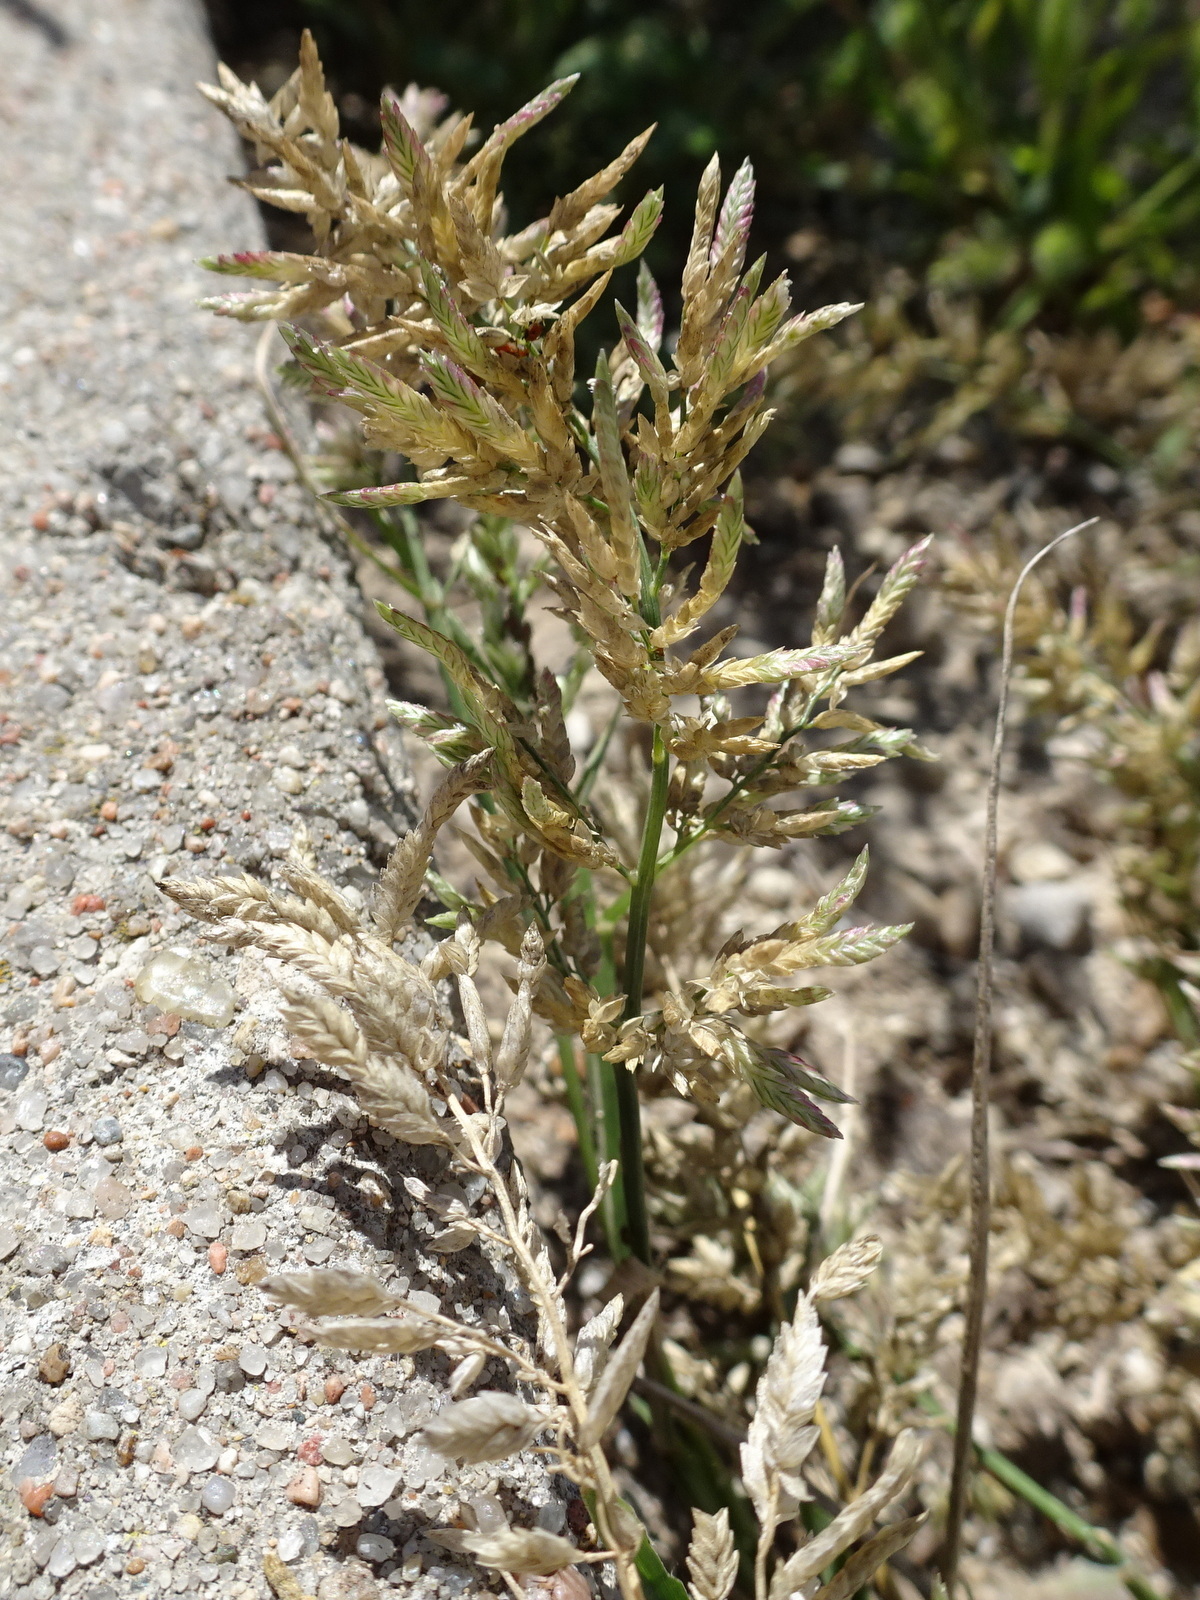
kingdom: Plantae
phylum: Tracheophyta
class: Liliopsida
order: Poales
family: Poaceae
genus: Eragrostis
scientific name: Eragrostis cilianensis
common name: Stinkgrass
